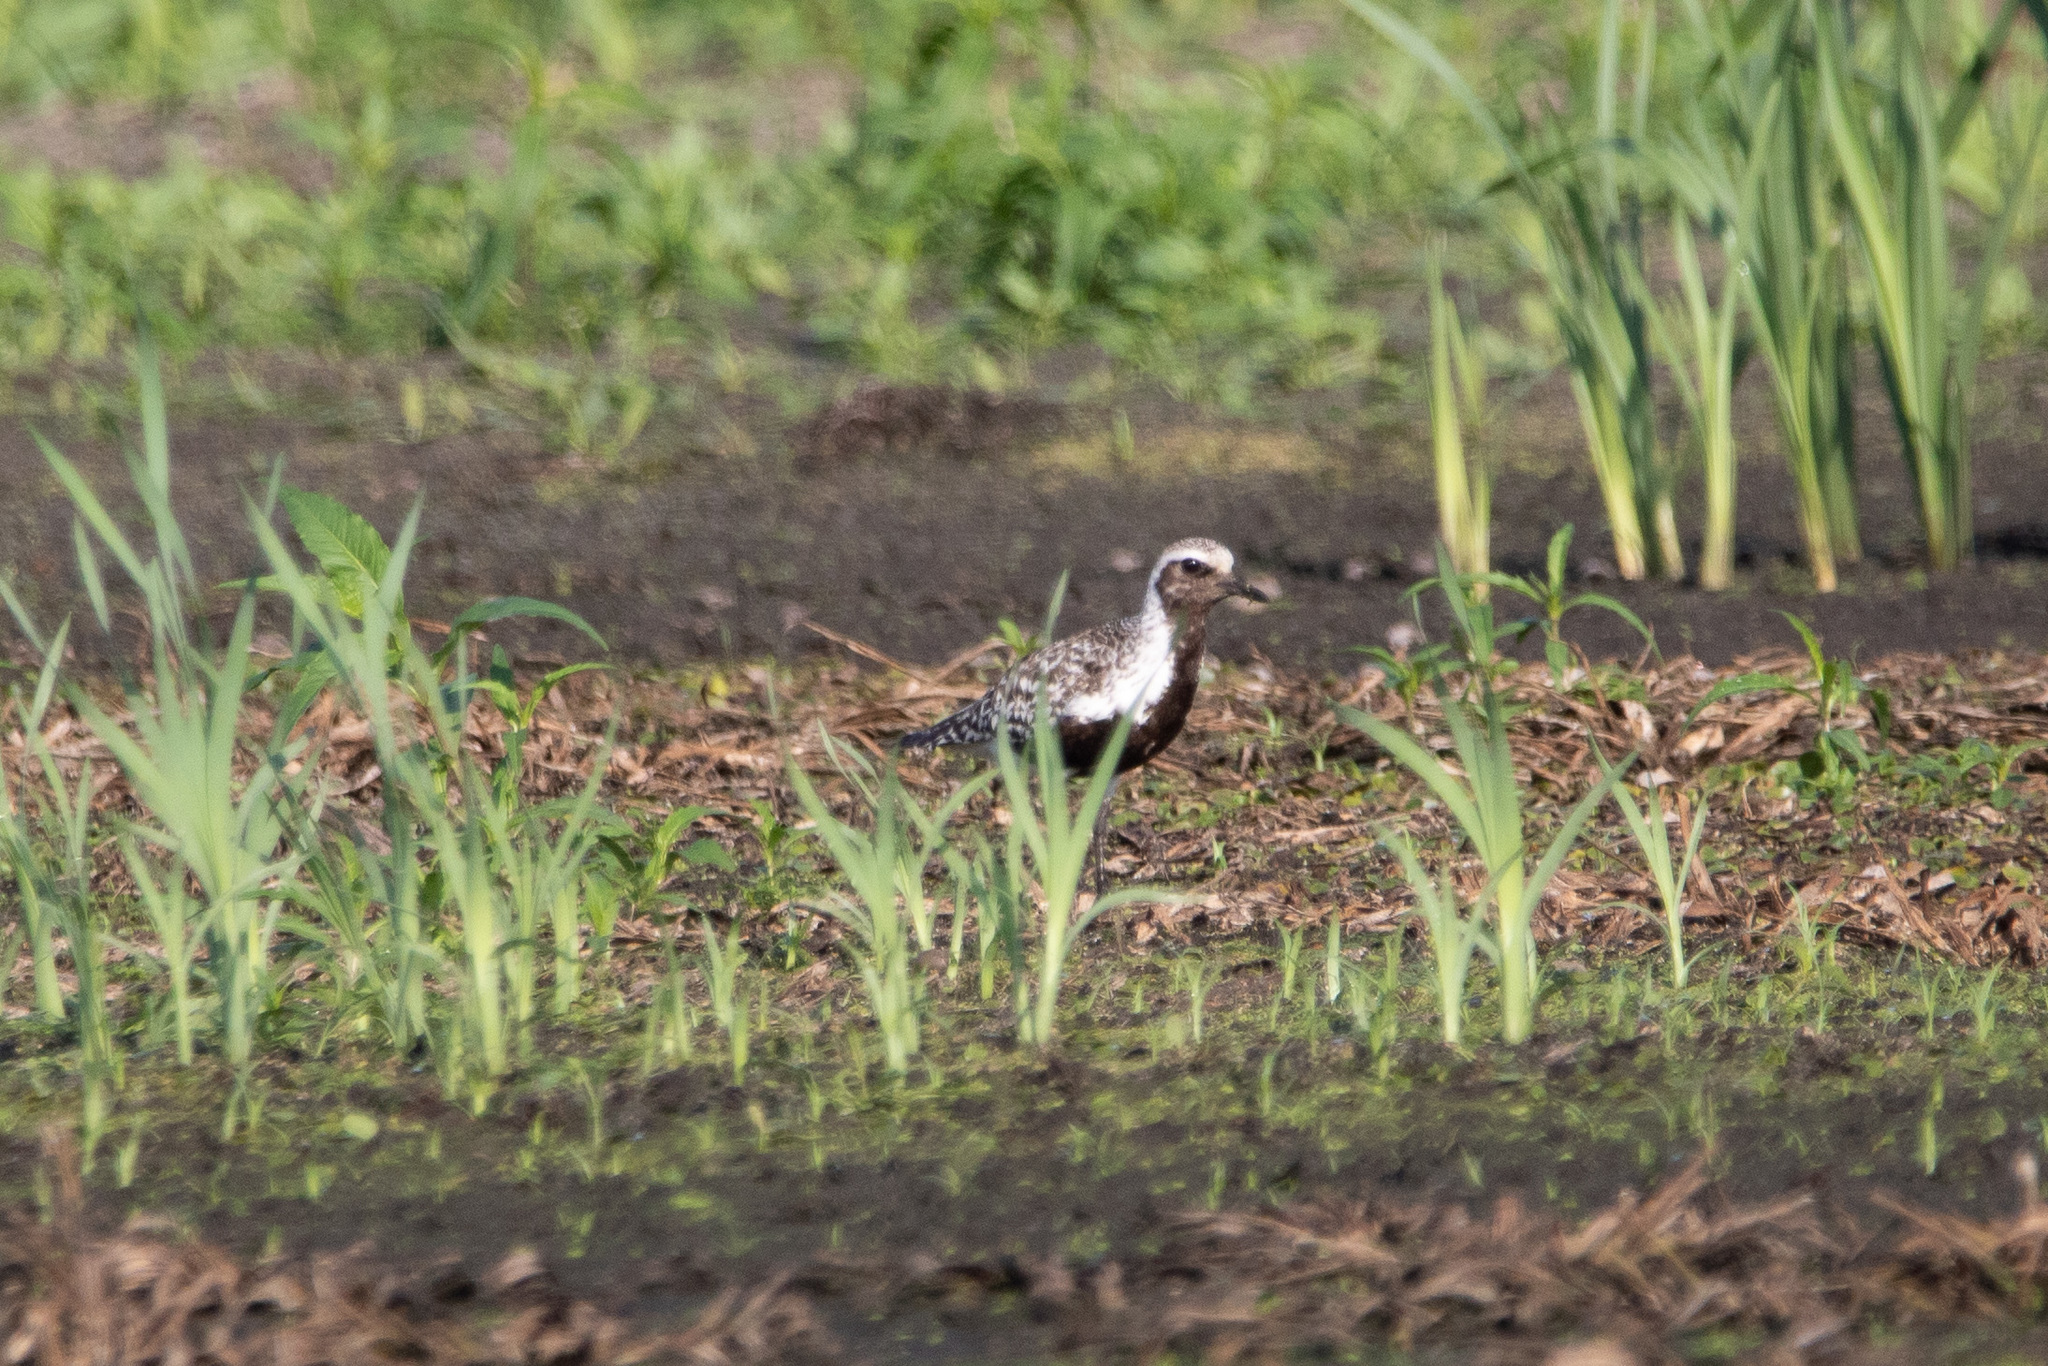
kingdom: Animalia
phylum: Chordata
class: Aves
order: Charadriiformes
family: Charadriidae
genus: Pluvialis
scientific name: Pluvialis squatarola
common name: Grey plover
